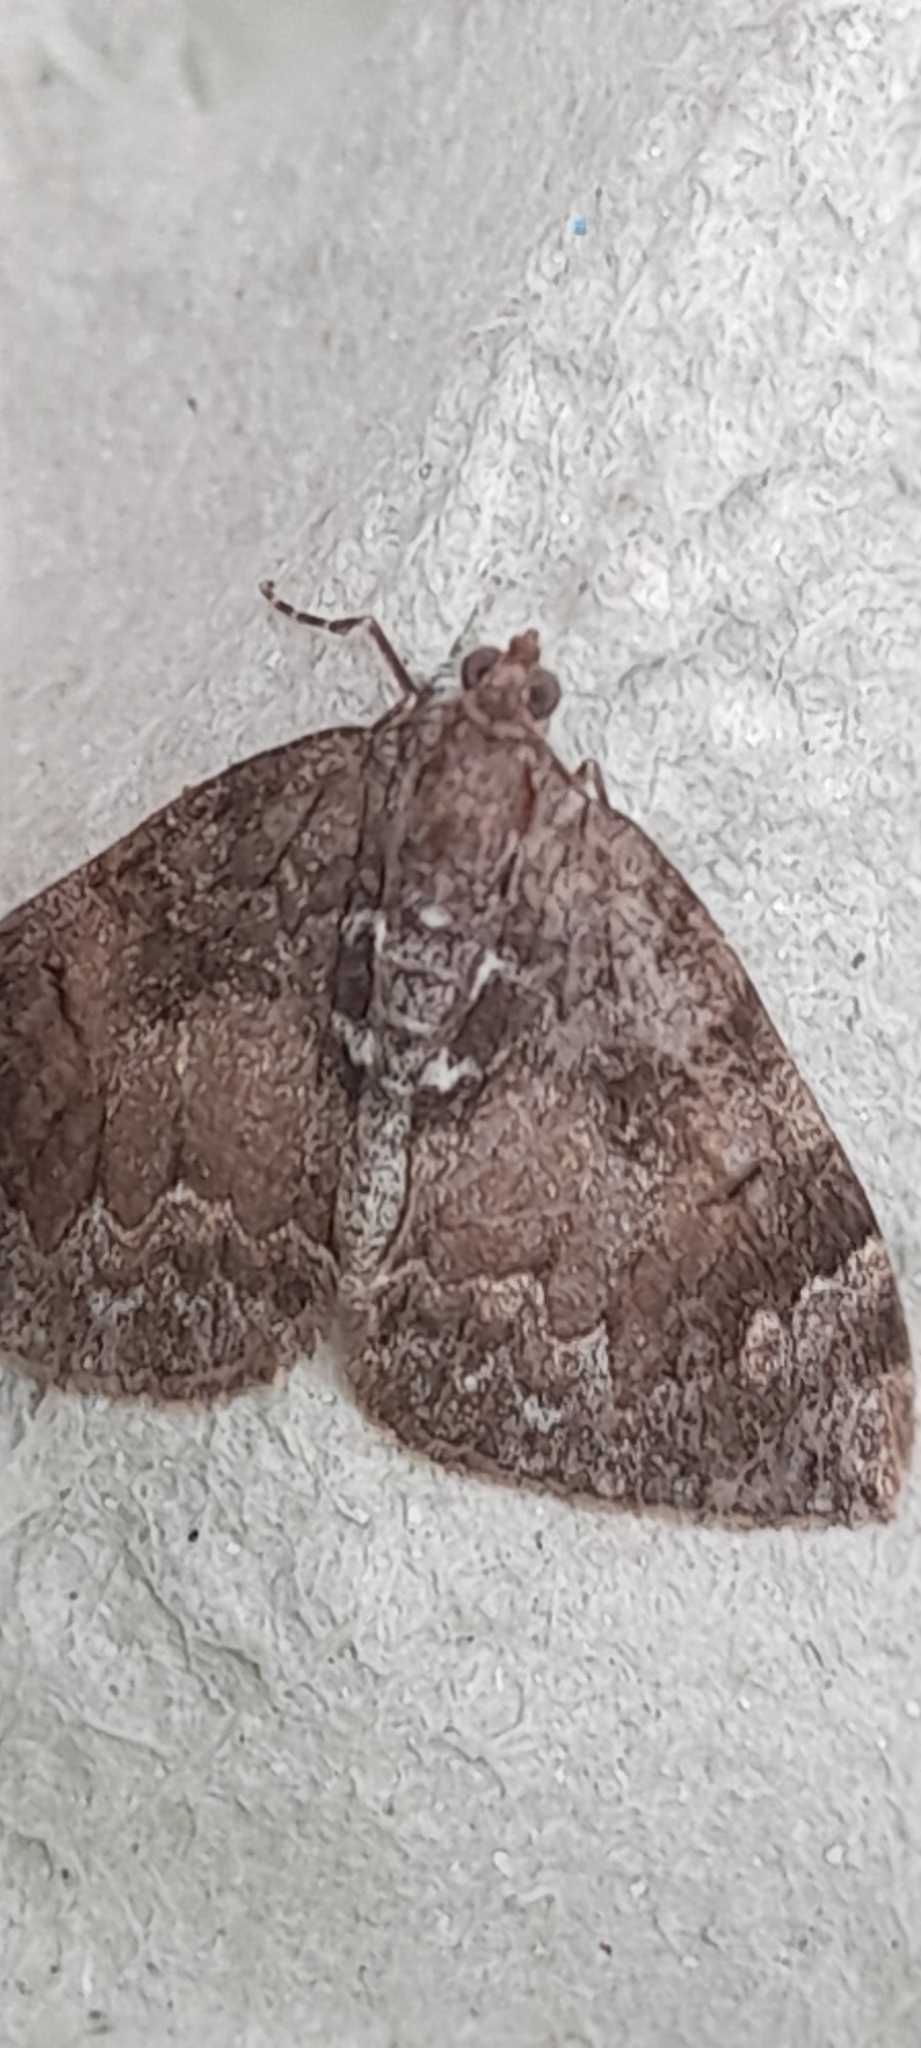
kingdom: Animalia
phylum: Arthropoda
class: Insecta
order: Lepidoptera
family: Geometridae
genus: Dysstroma
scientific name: Dysstroma truncata
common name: Common marbled carpet
